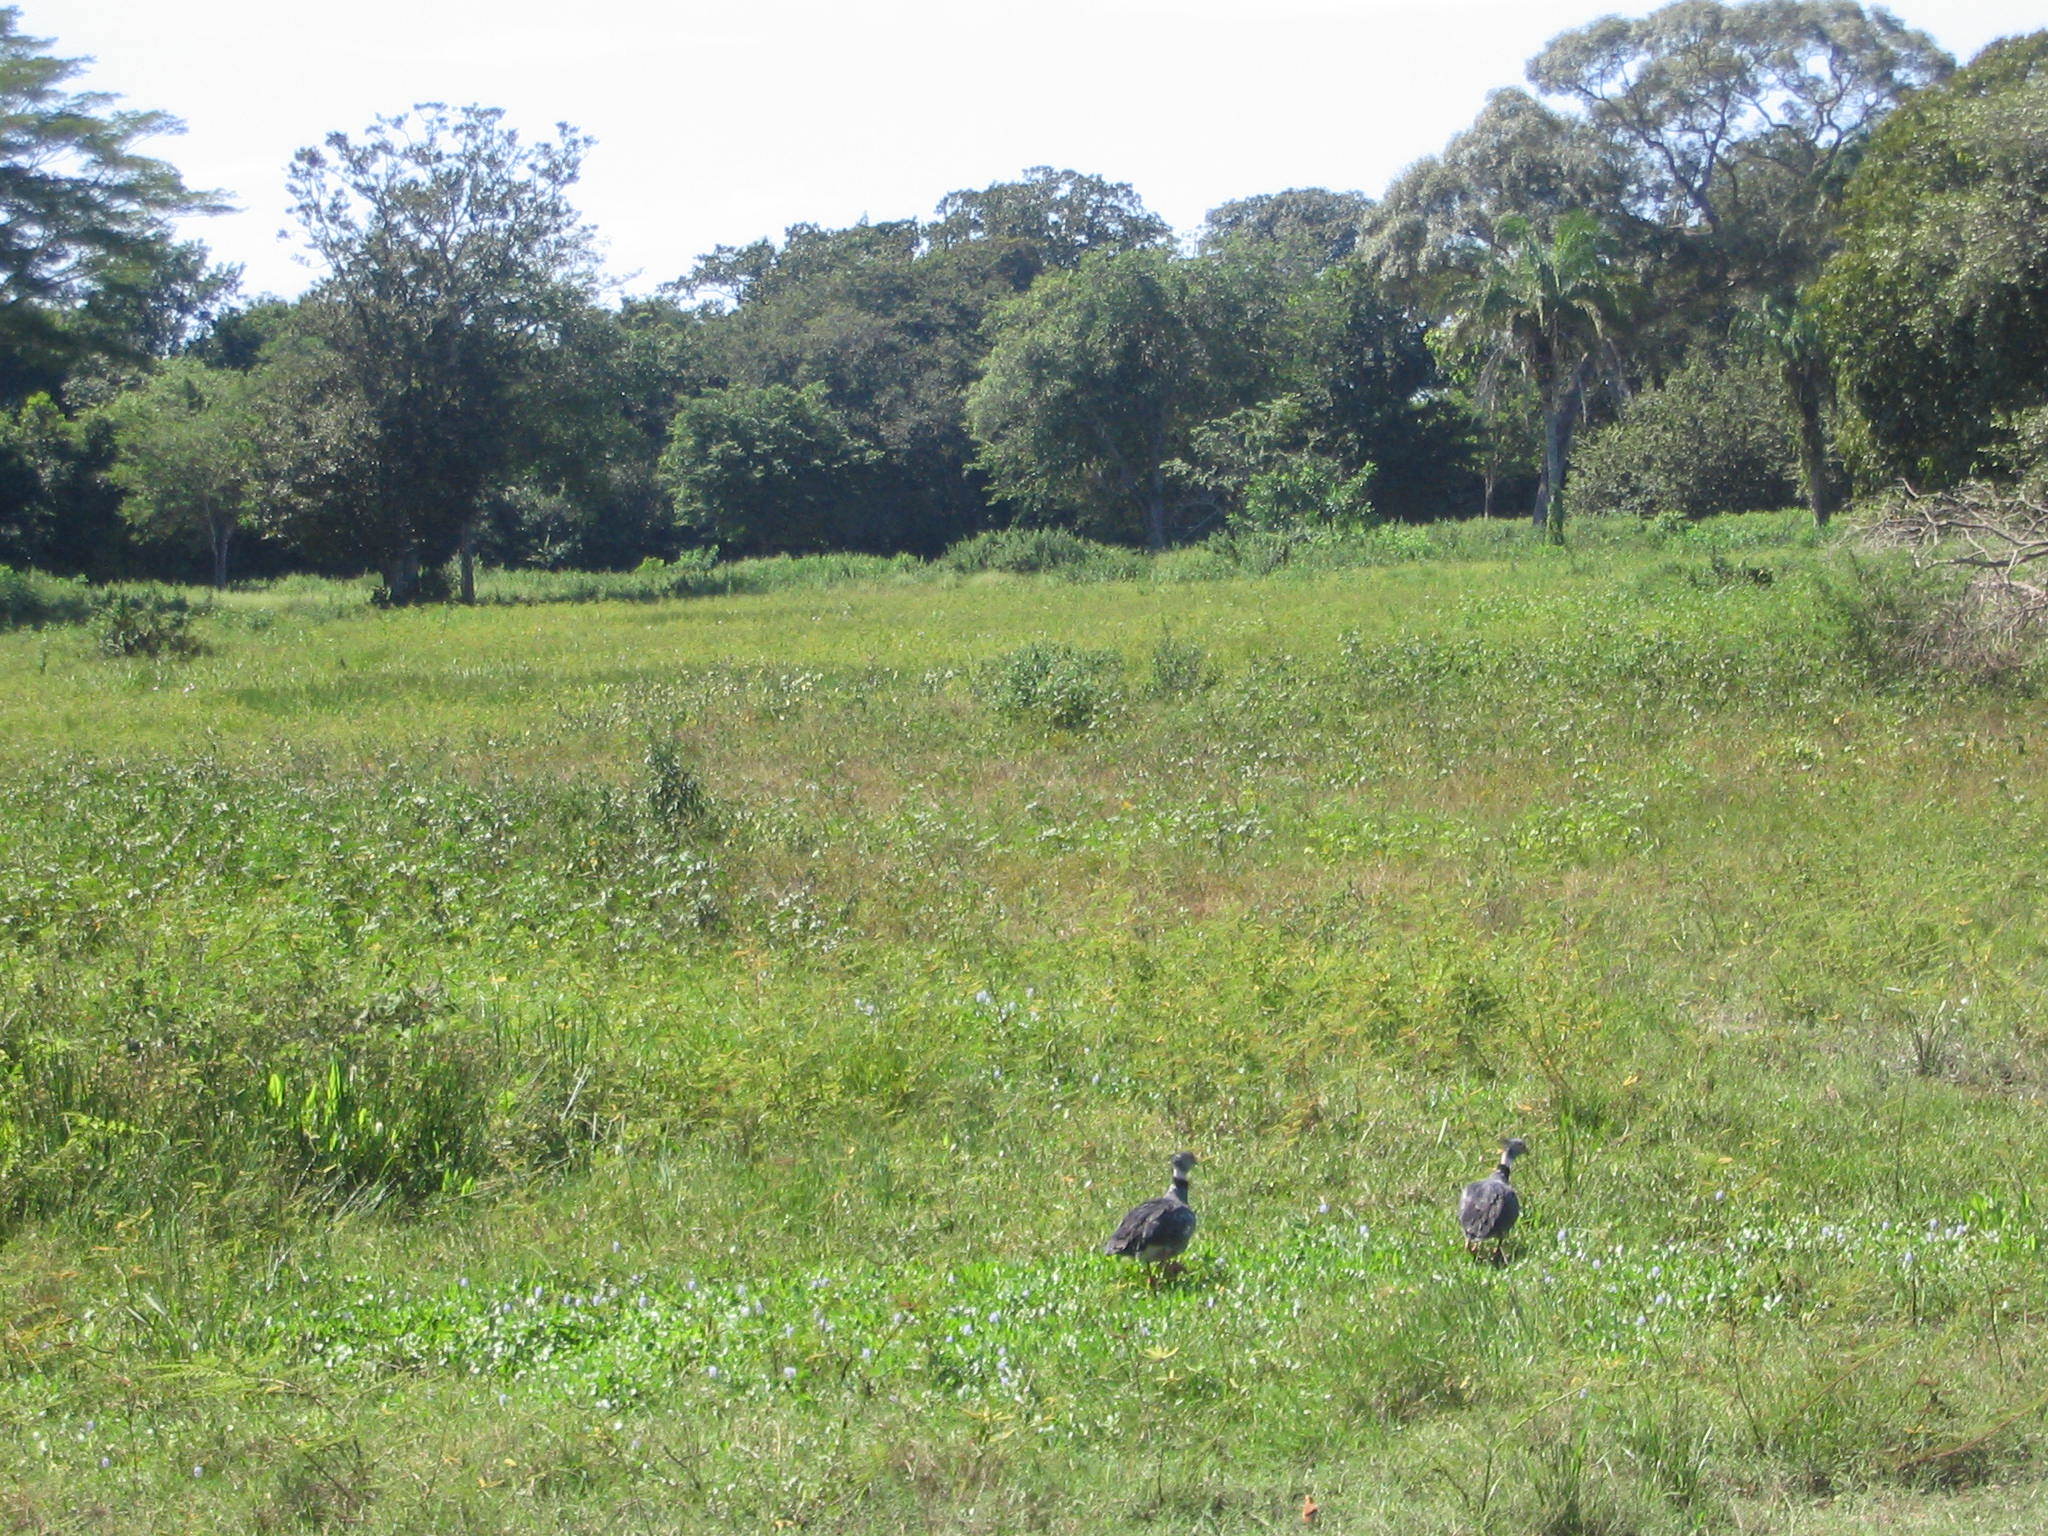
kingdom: Animalia
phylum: Chordata
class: Aves
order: Anseriformes
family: Anhimidae
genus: Chauna
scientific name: Chauna torquata
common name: Southern screamer
